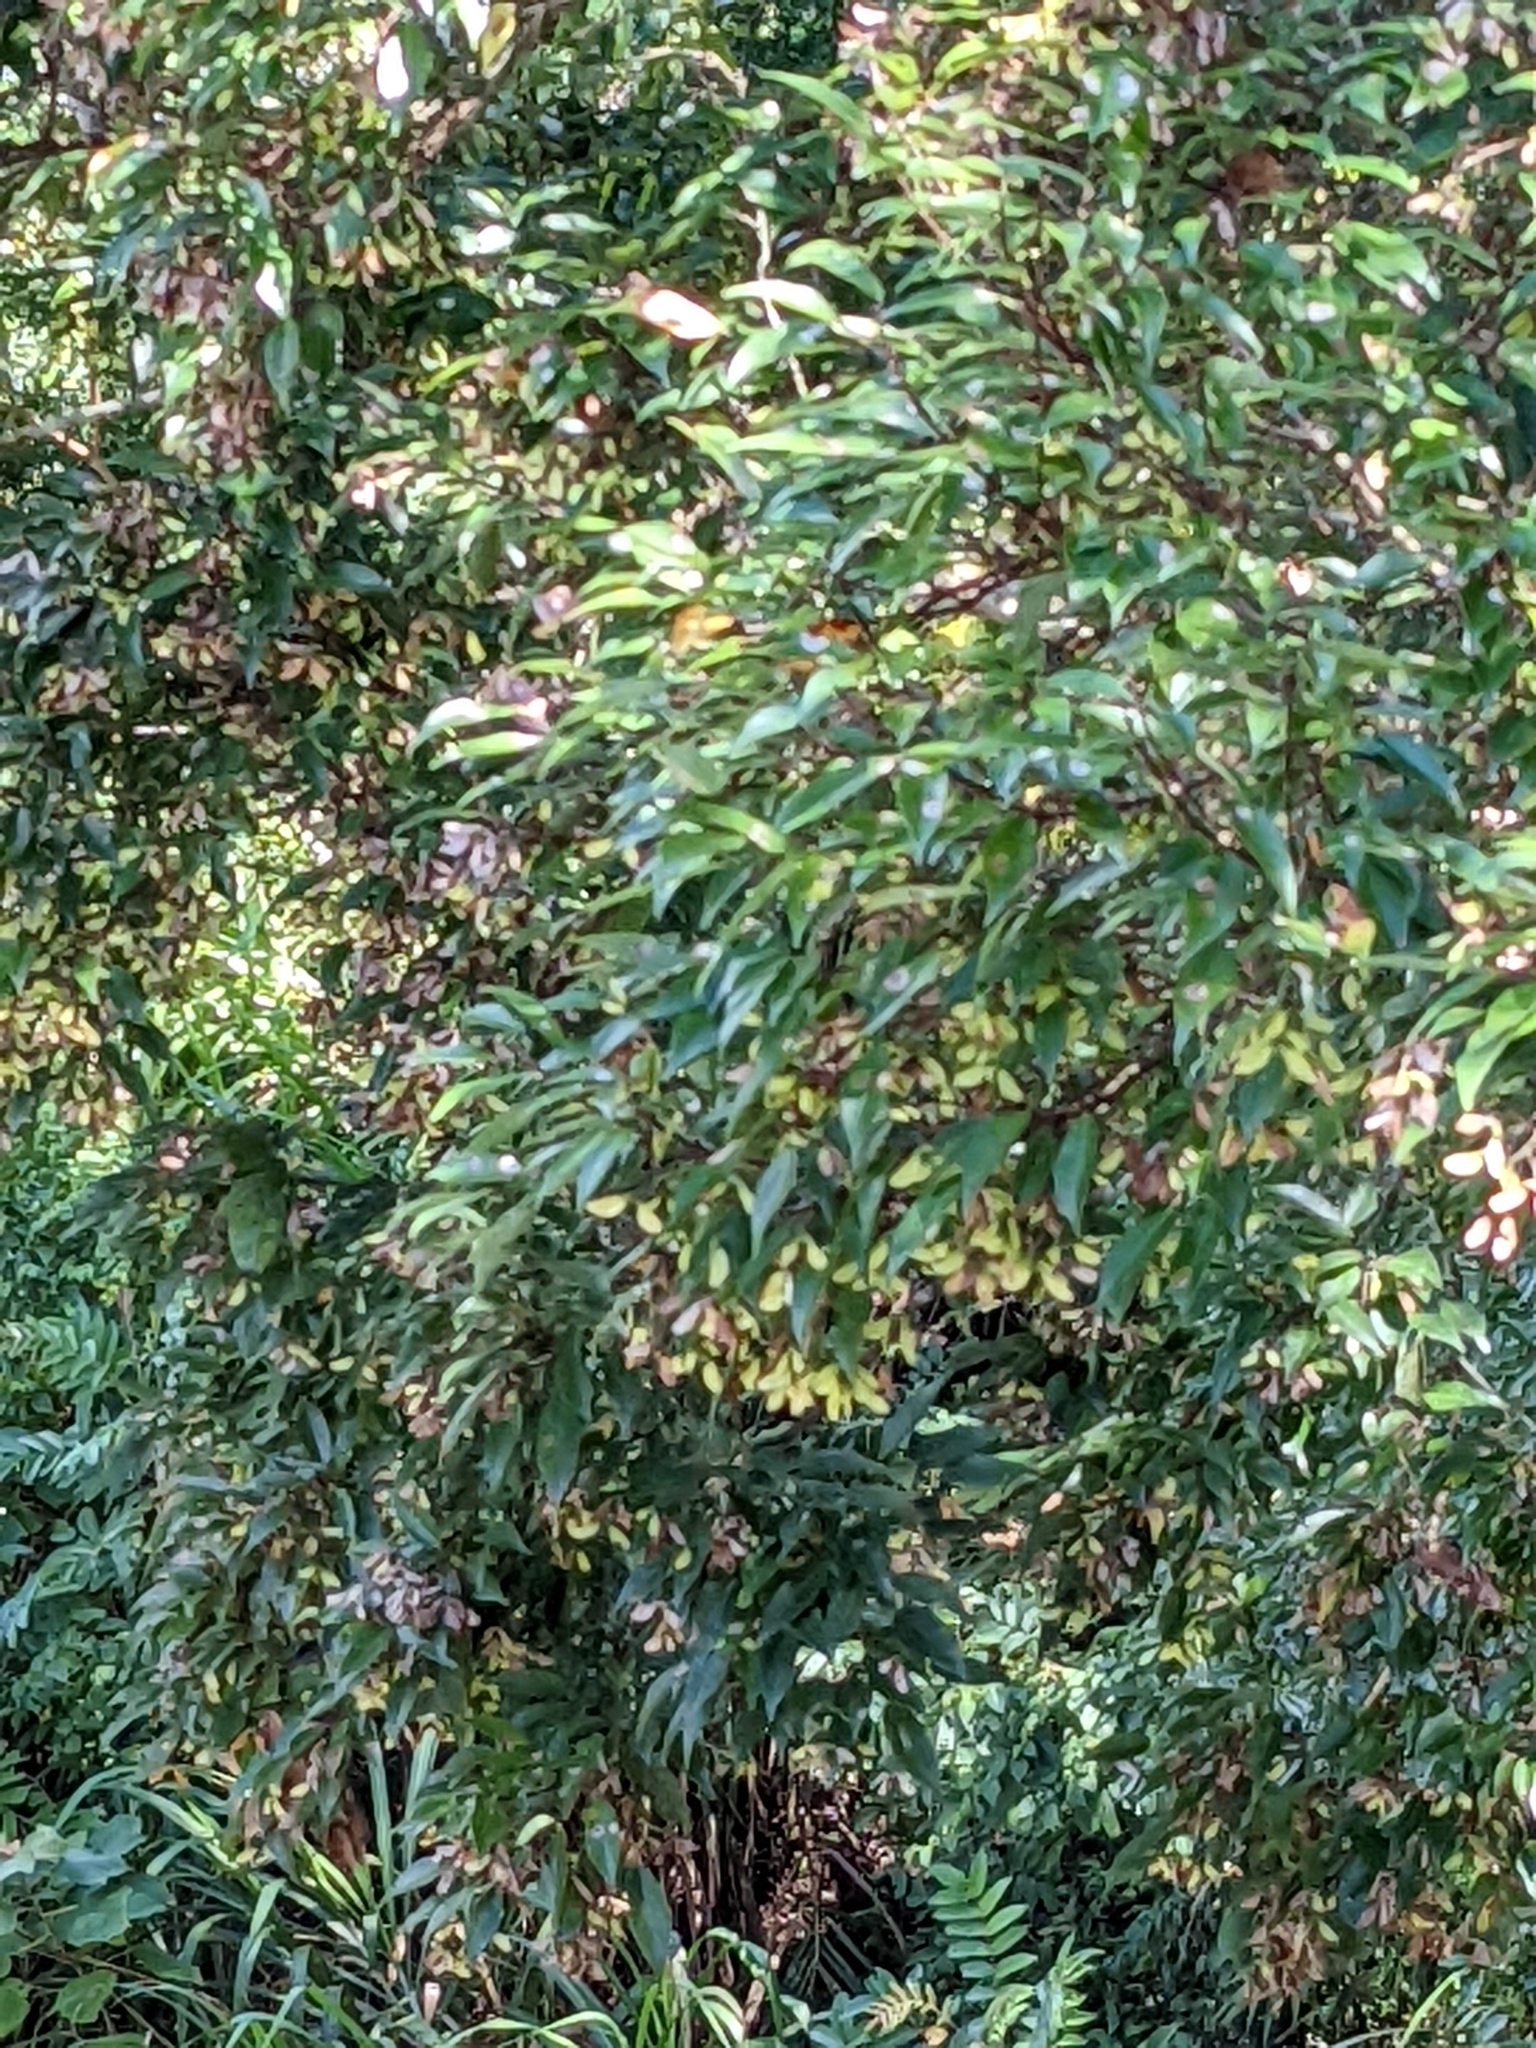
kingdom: Plantae
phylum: Tracheophyta
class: Magnoliopsida
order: Sapindales
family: Sapindaceae
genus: Acer
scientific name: Acer oblongum
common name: Himalayan maple
